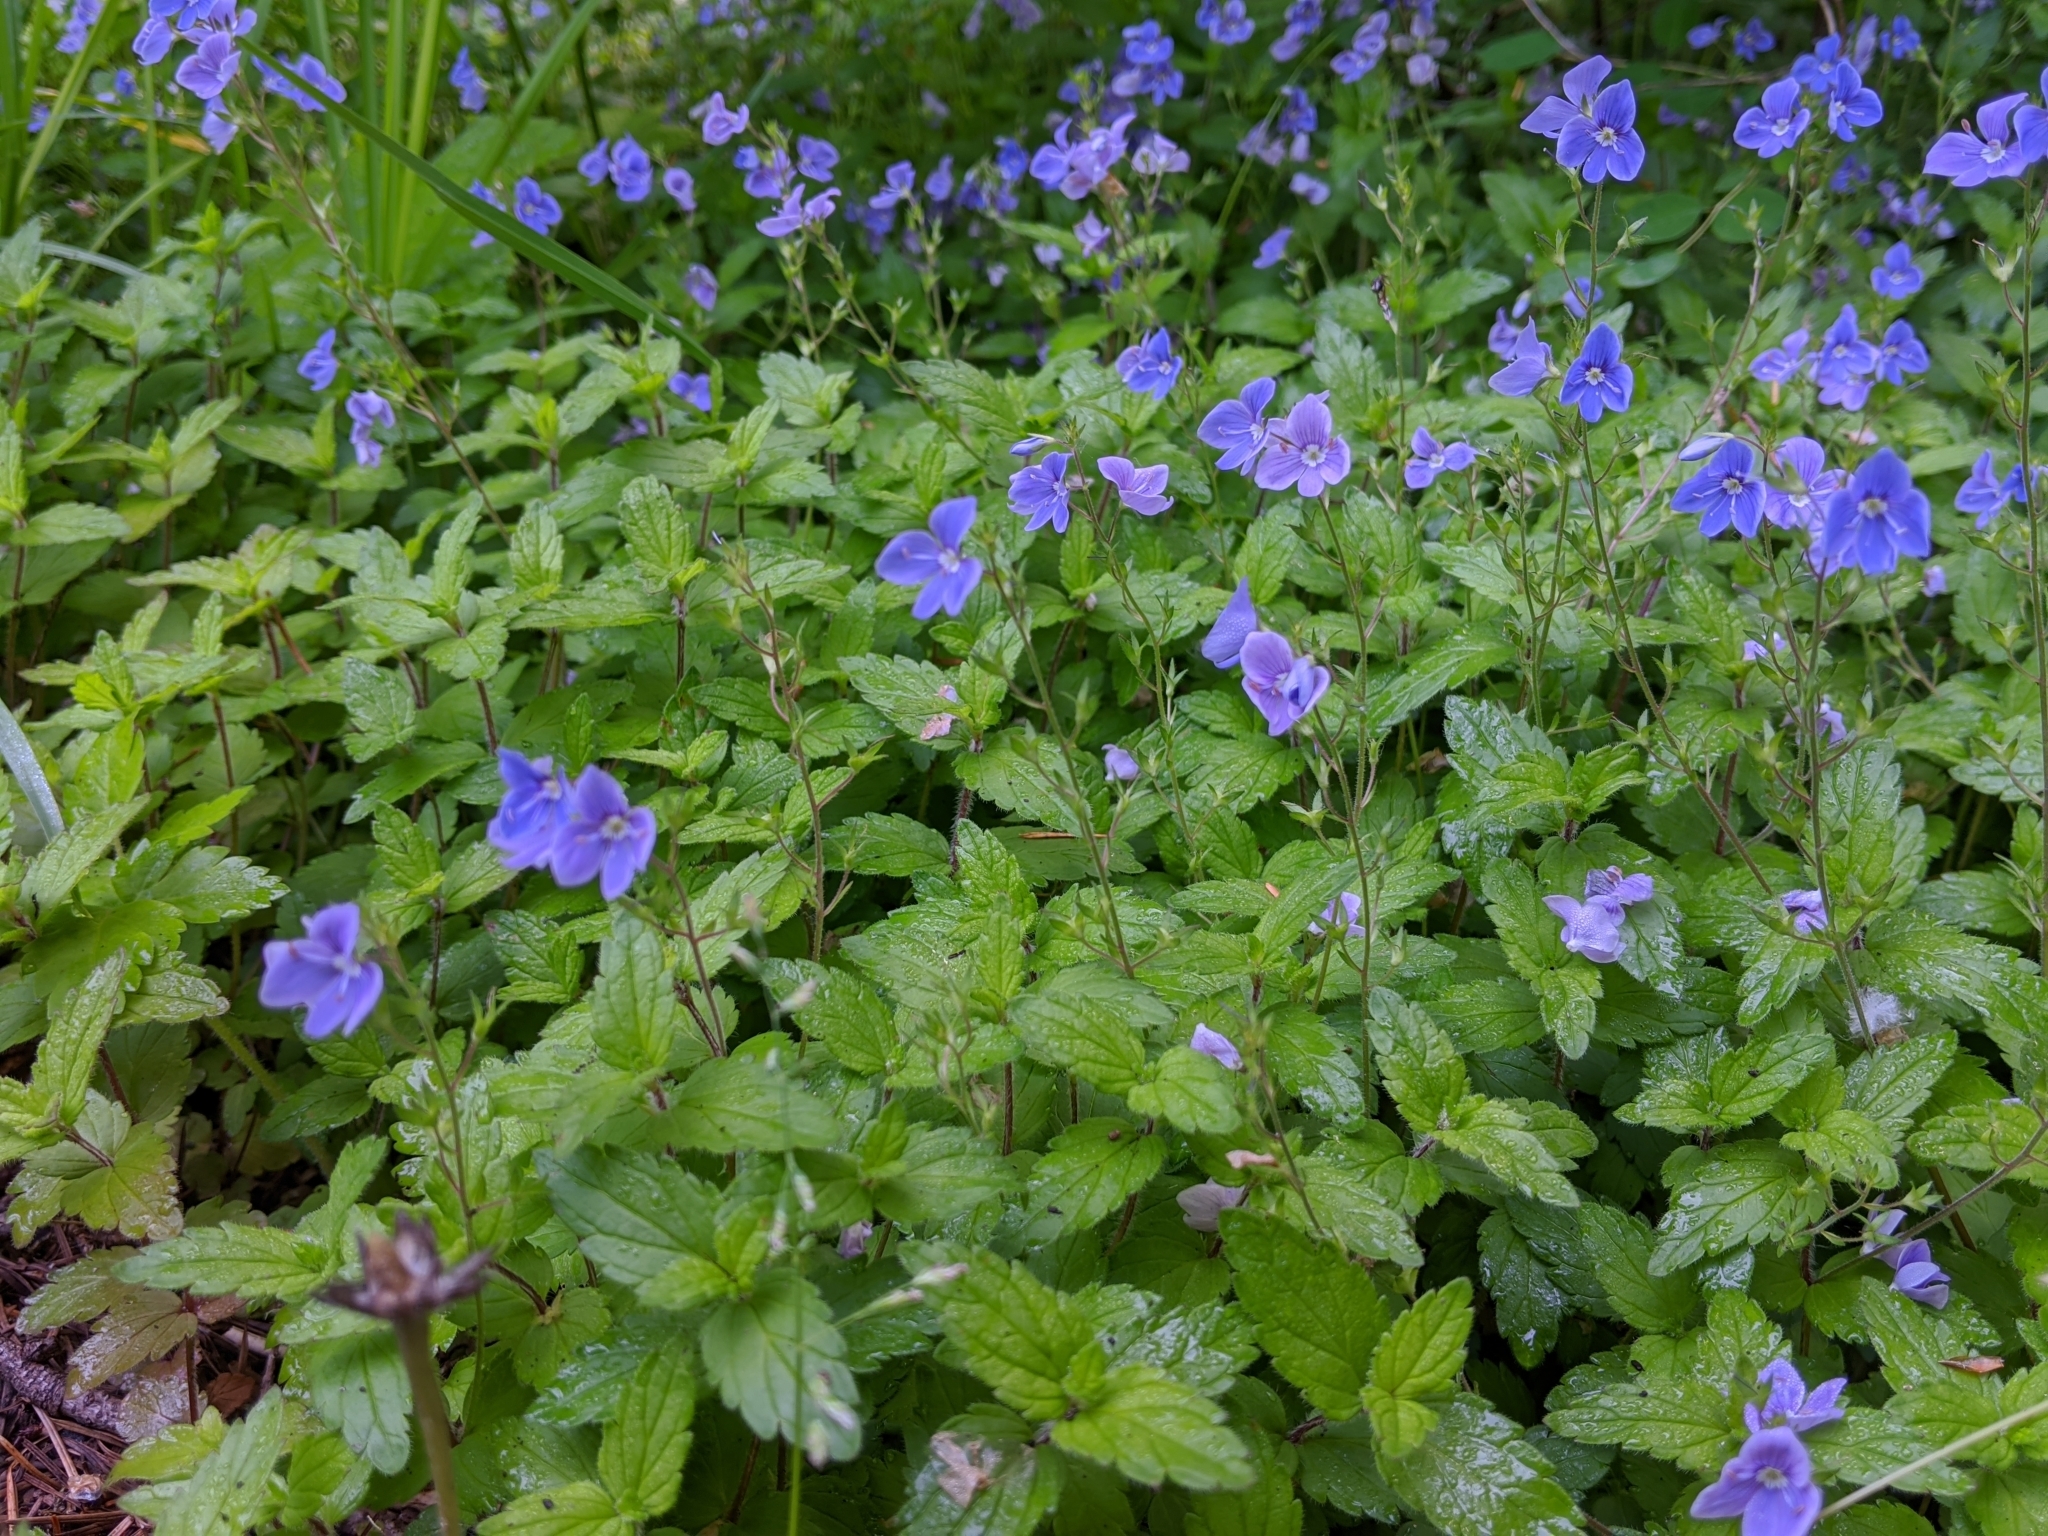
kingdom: Plantae
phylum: Tracheophyta
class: Magnoliopsida
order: Lamiales
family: Plantaginaceae
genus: Veronica
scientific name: Veronica chamaedrys
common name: Germander speedwell
